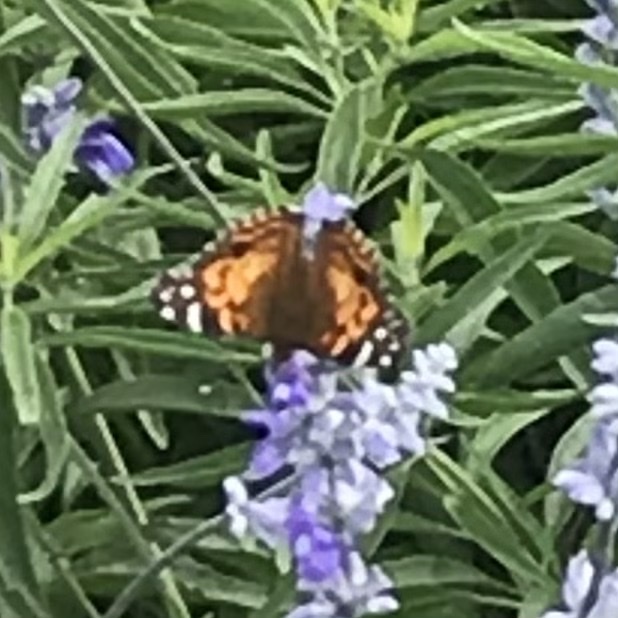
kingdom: Animalia
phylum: Arthropoda
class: Insecta
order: Lepidoptera
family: Nymphalidae
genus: Vanessa
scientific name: Vanessa virginiensis
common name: American lady
